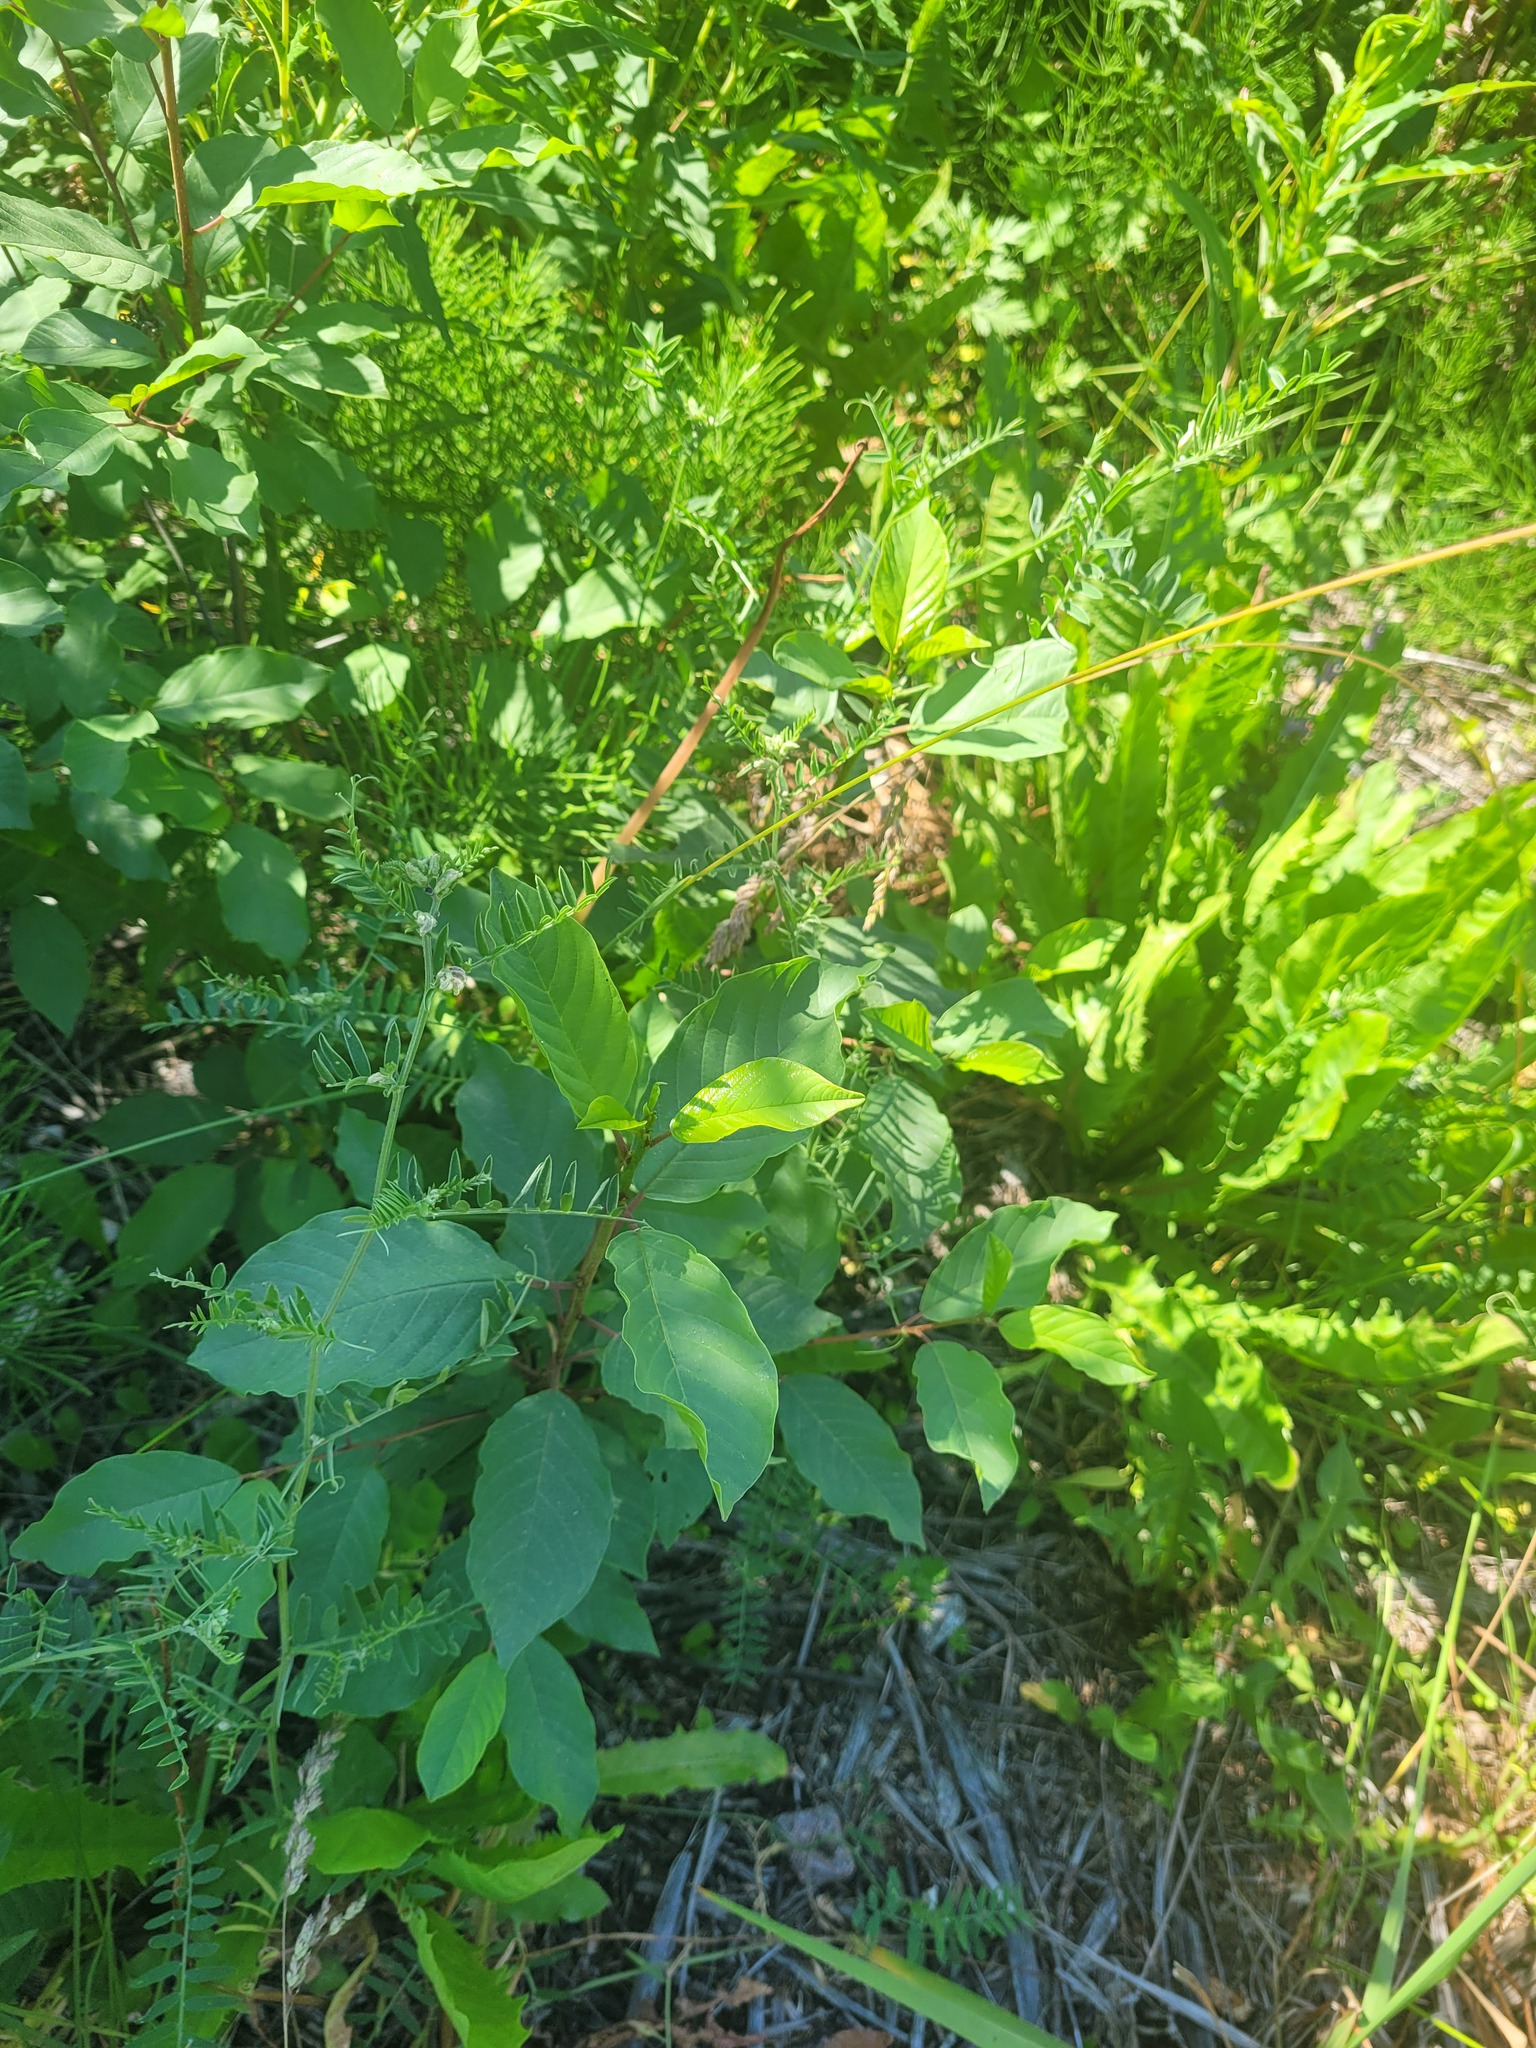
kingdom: Plantae
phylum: Tracheophyta
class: Magnoliopsida
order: Rosales
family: Rhamnaceae
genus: Frangula
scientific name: Frangula alnus
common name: Alder buckthorn
